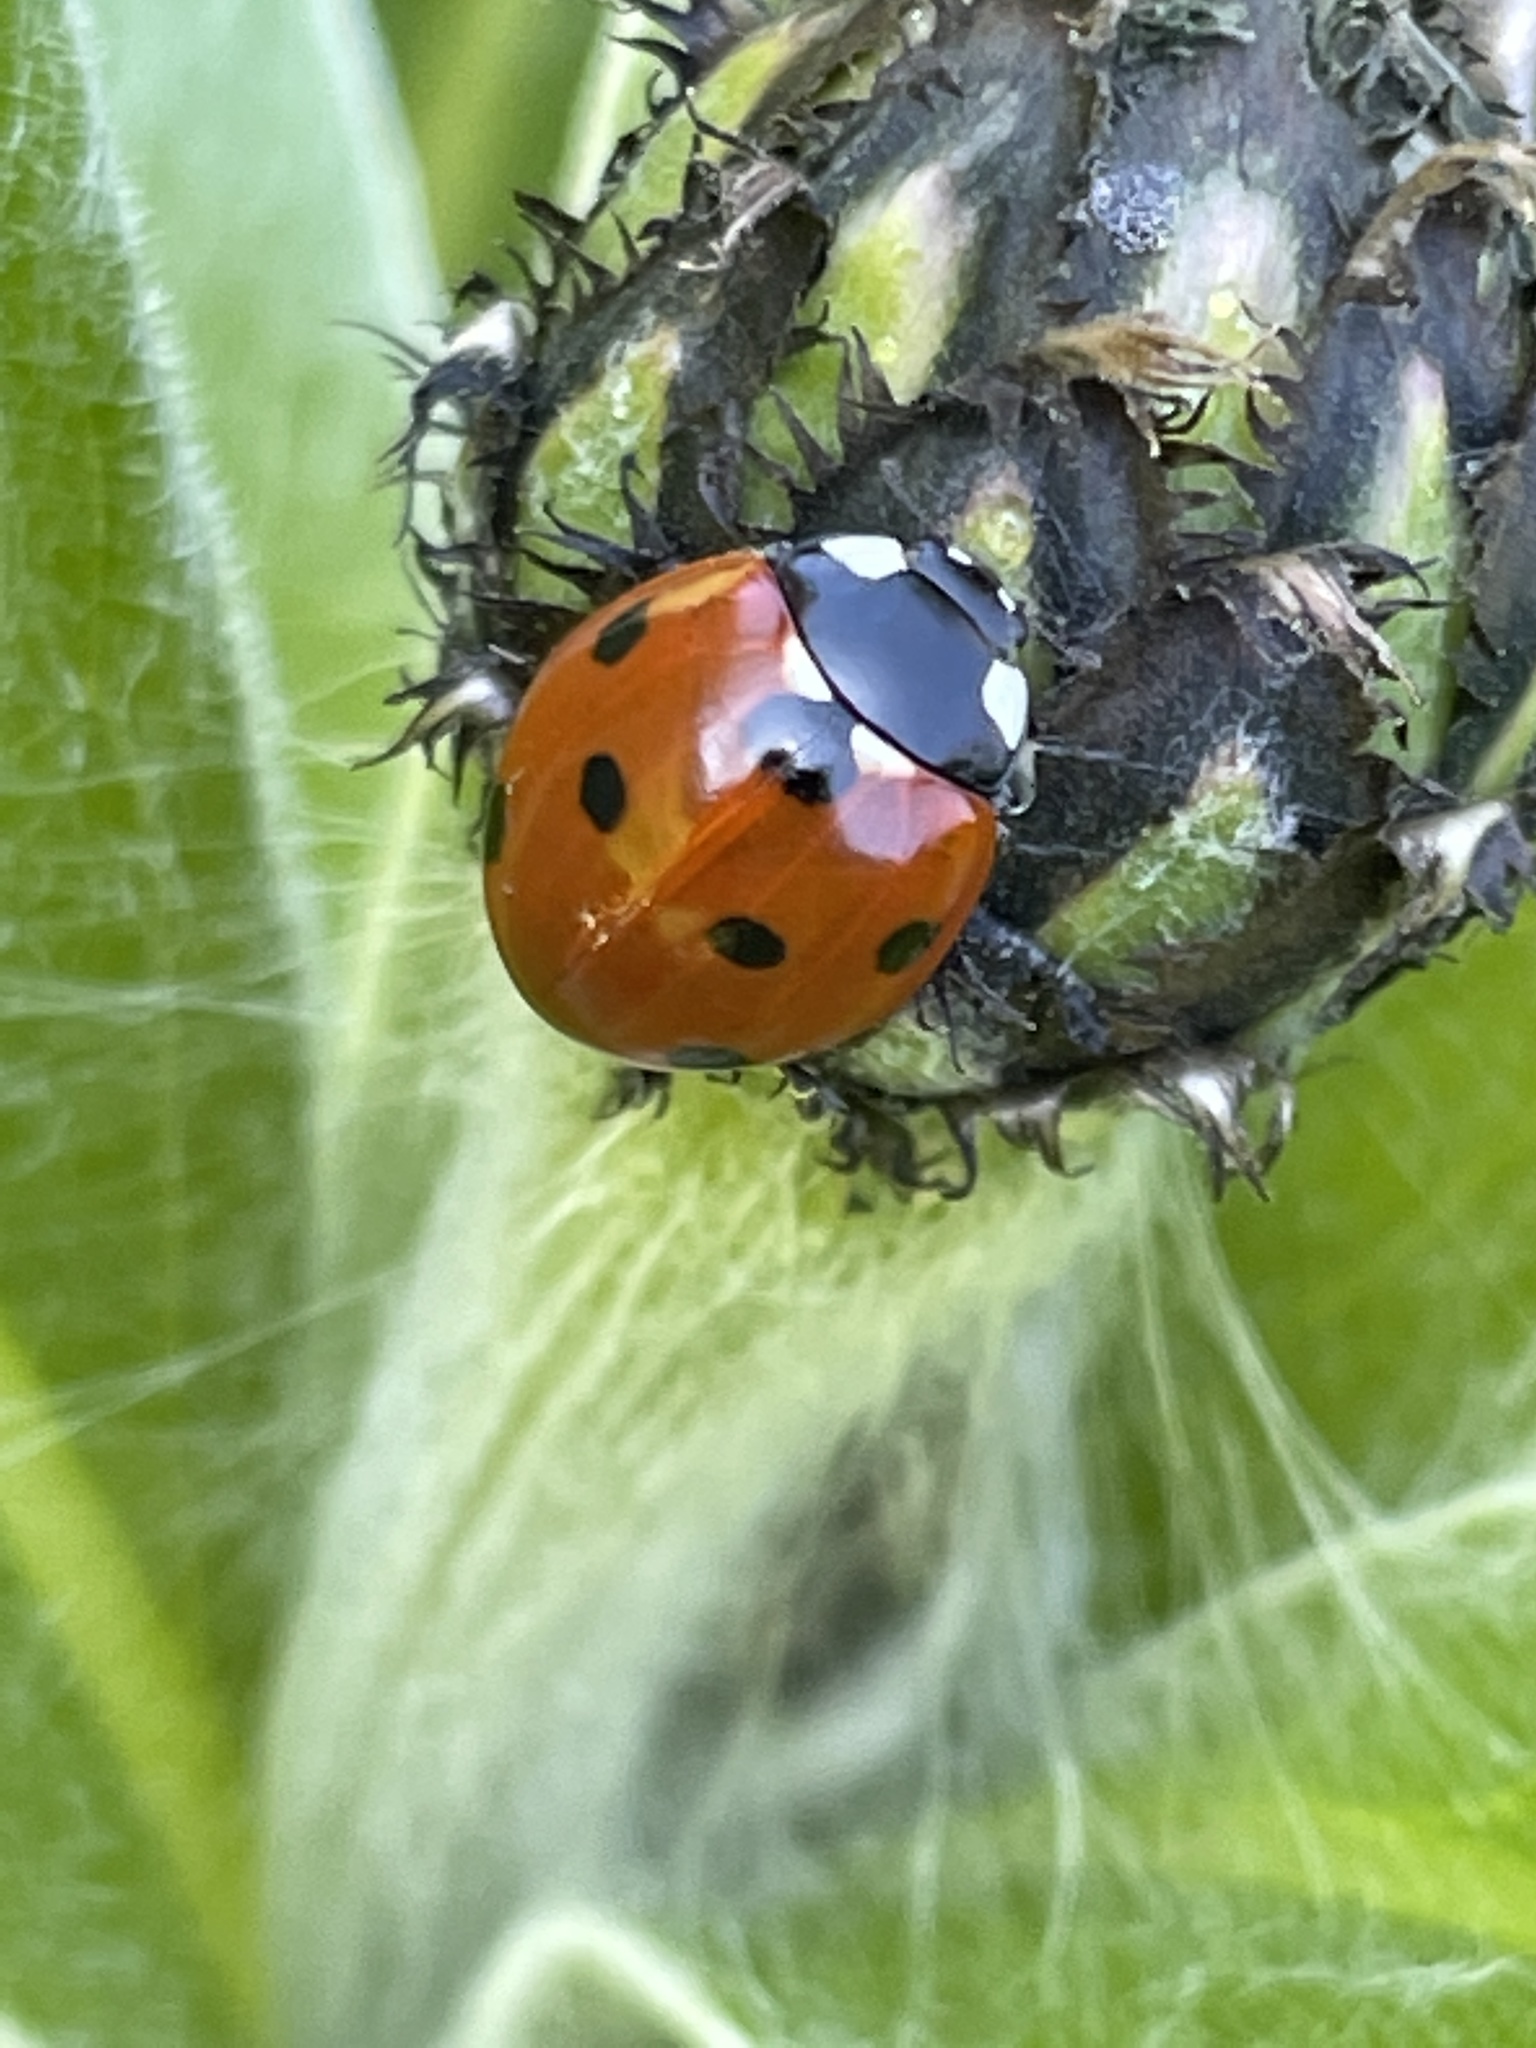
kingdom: Animalia
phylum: Arthropoda
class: Insecta
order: Coleoptera
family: Coccinellidae
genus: Coccinella
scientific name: Coccinella septempunctata
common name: Sevenspotted lady beetle
